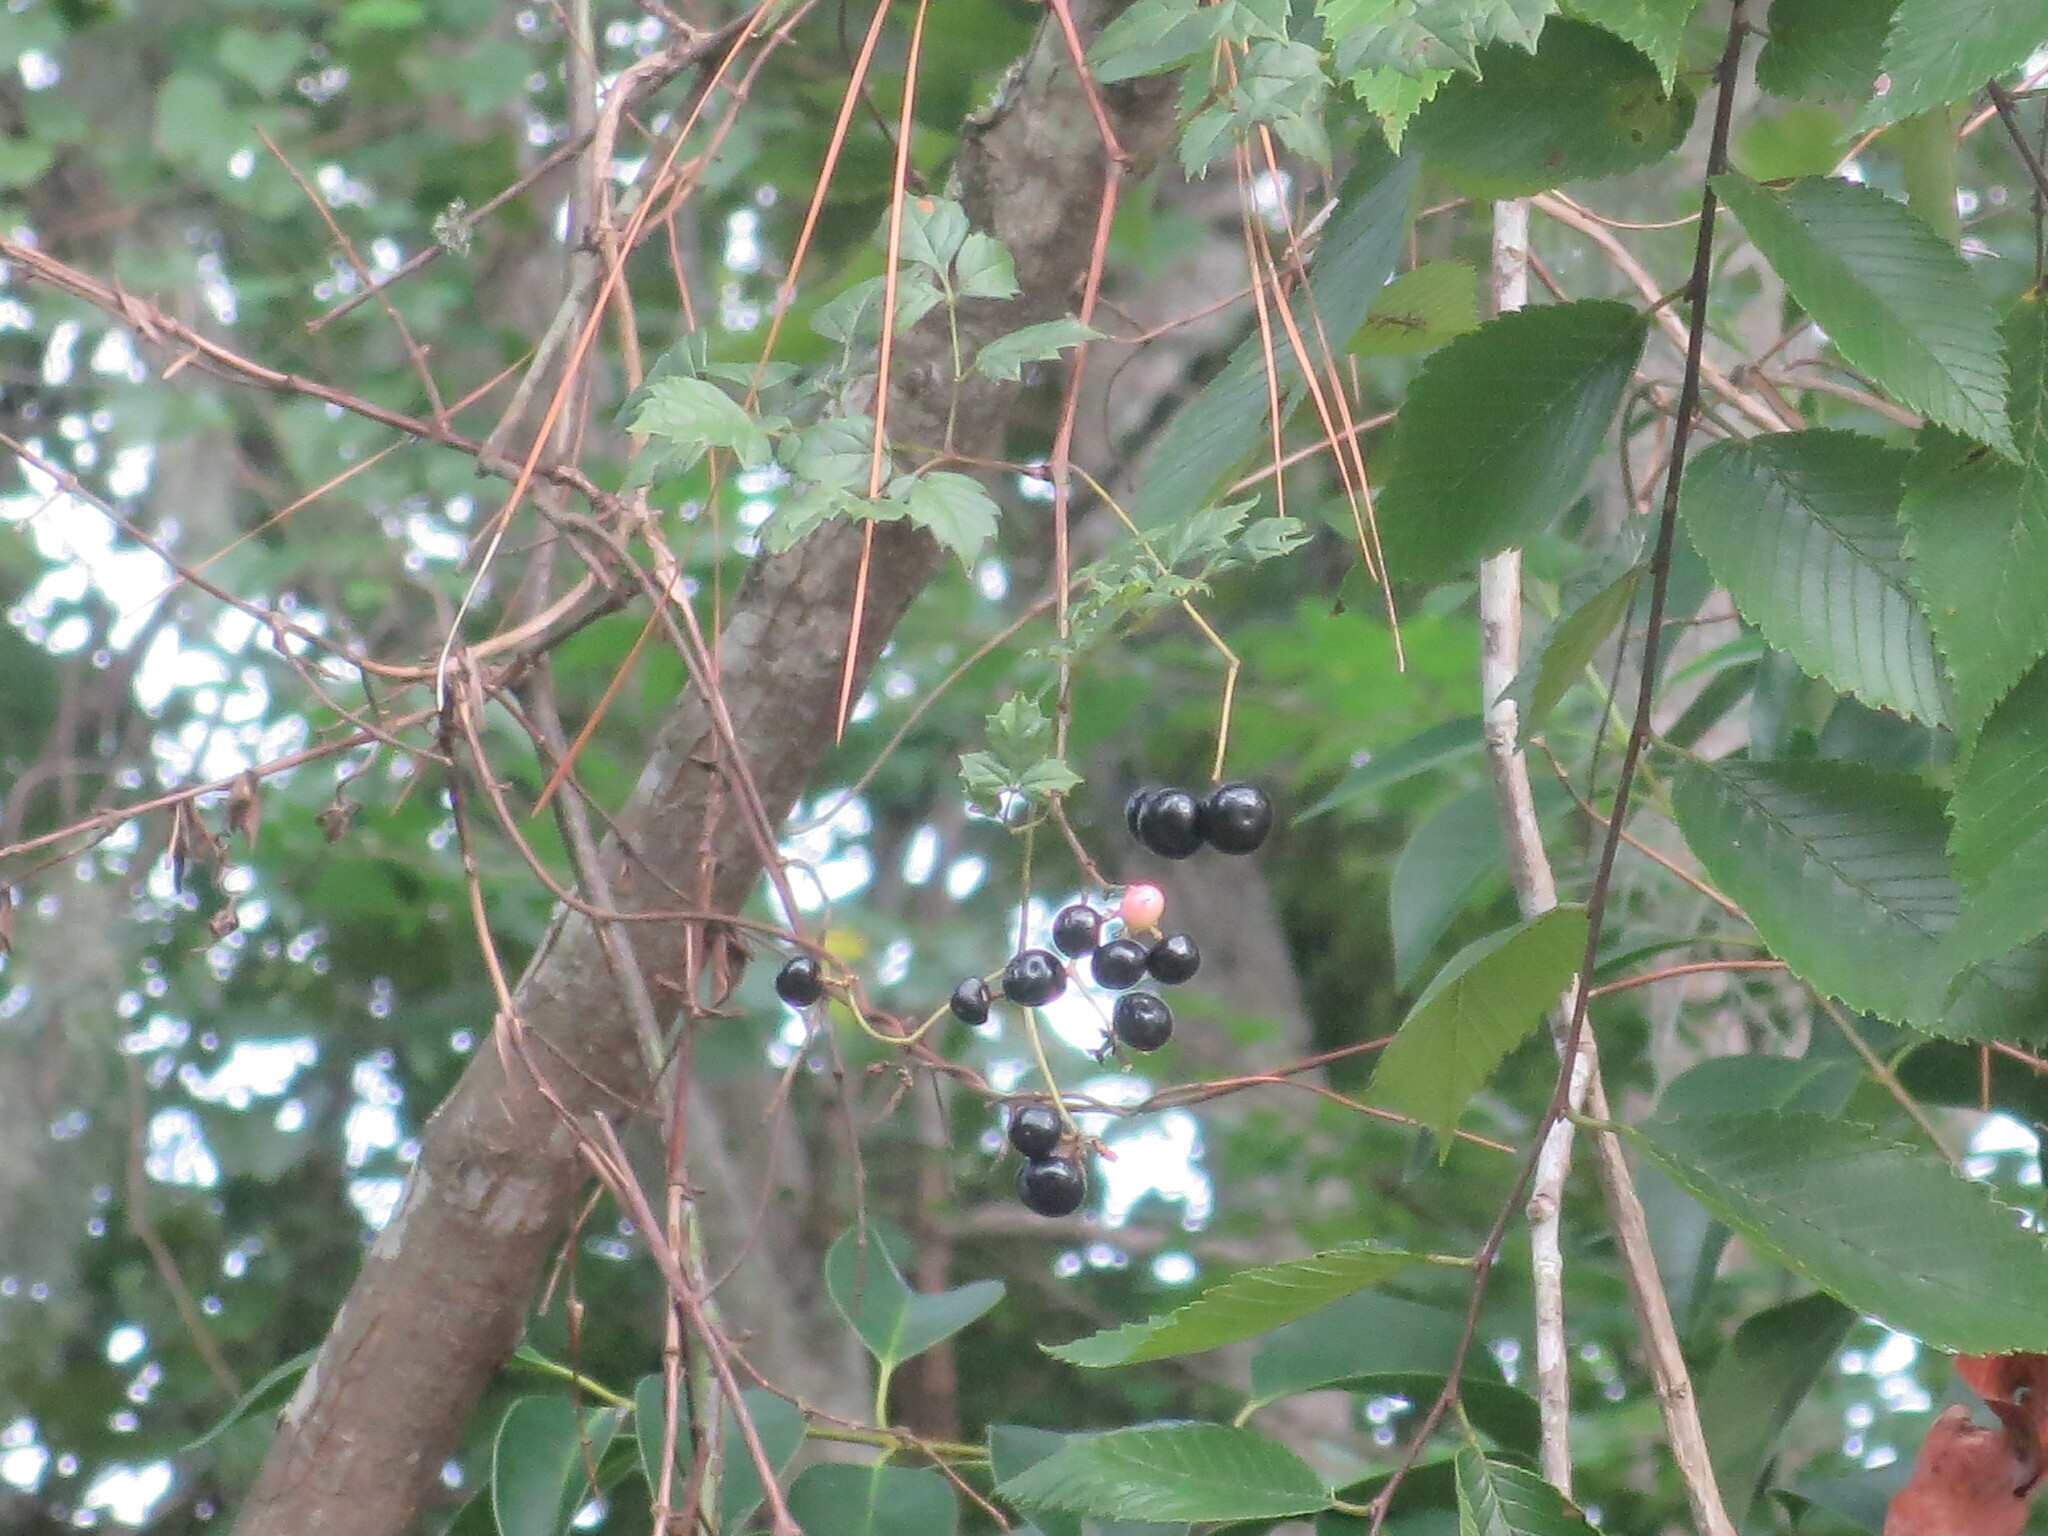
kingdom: Plantae
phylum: Tracheophyta
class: Magnoliopsida
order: Vitales
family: Vitaceae
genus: Nekemias
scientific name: Nekemias arborea
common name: Peppervine
